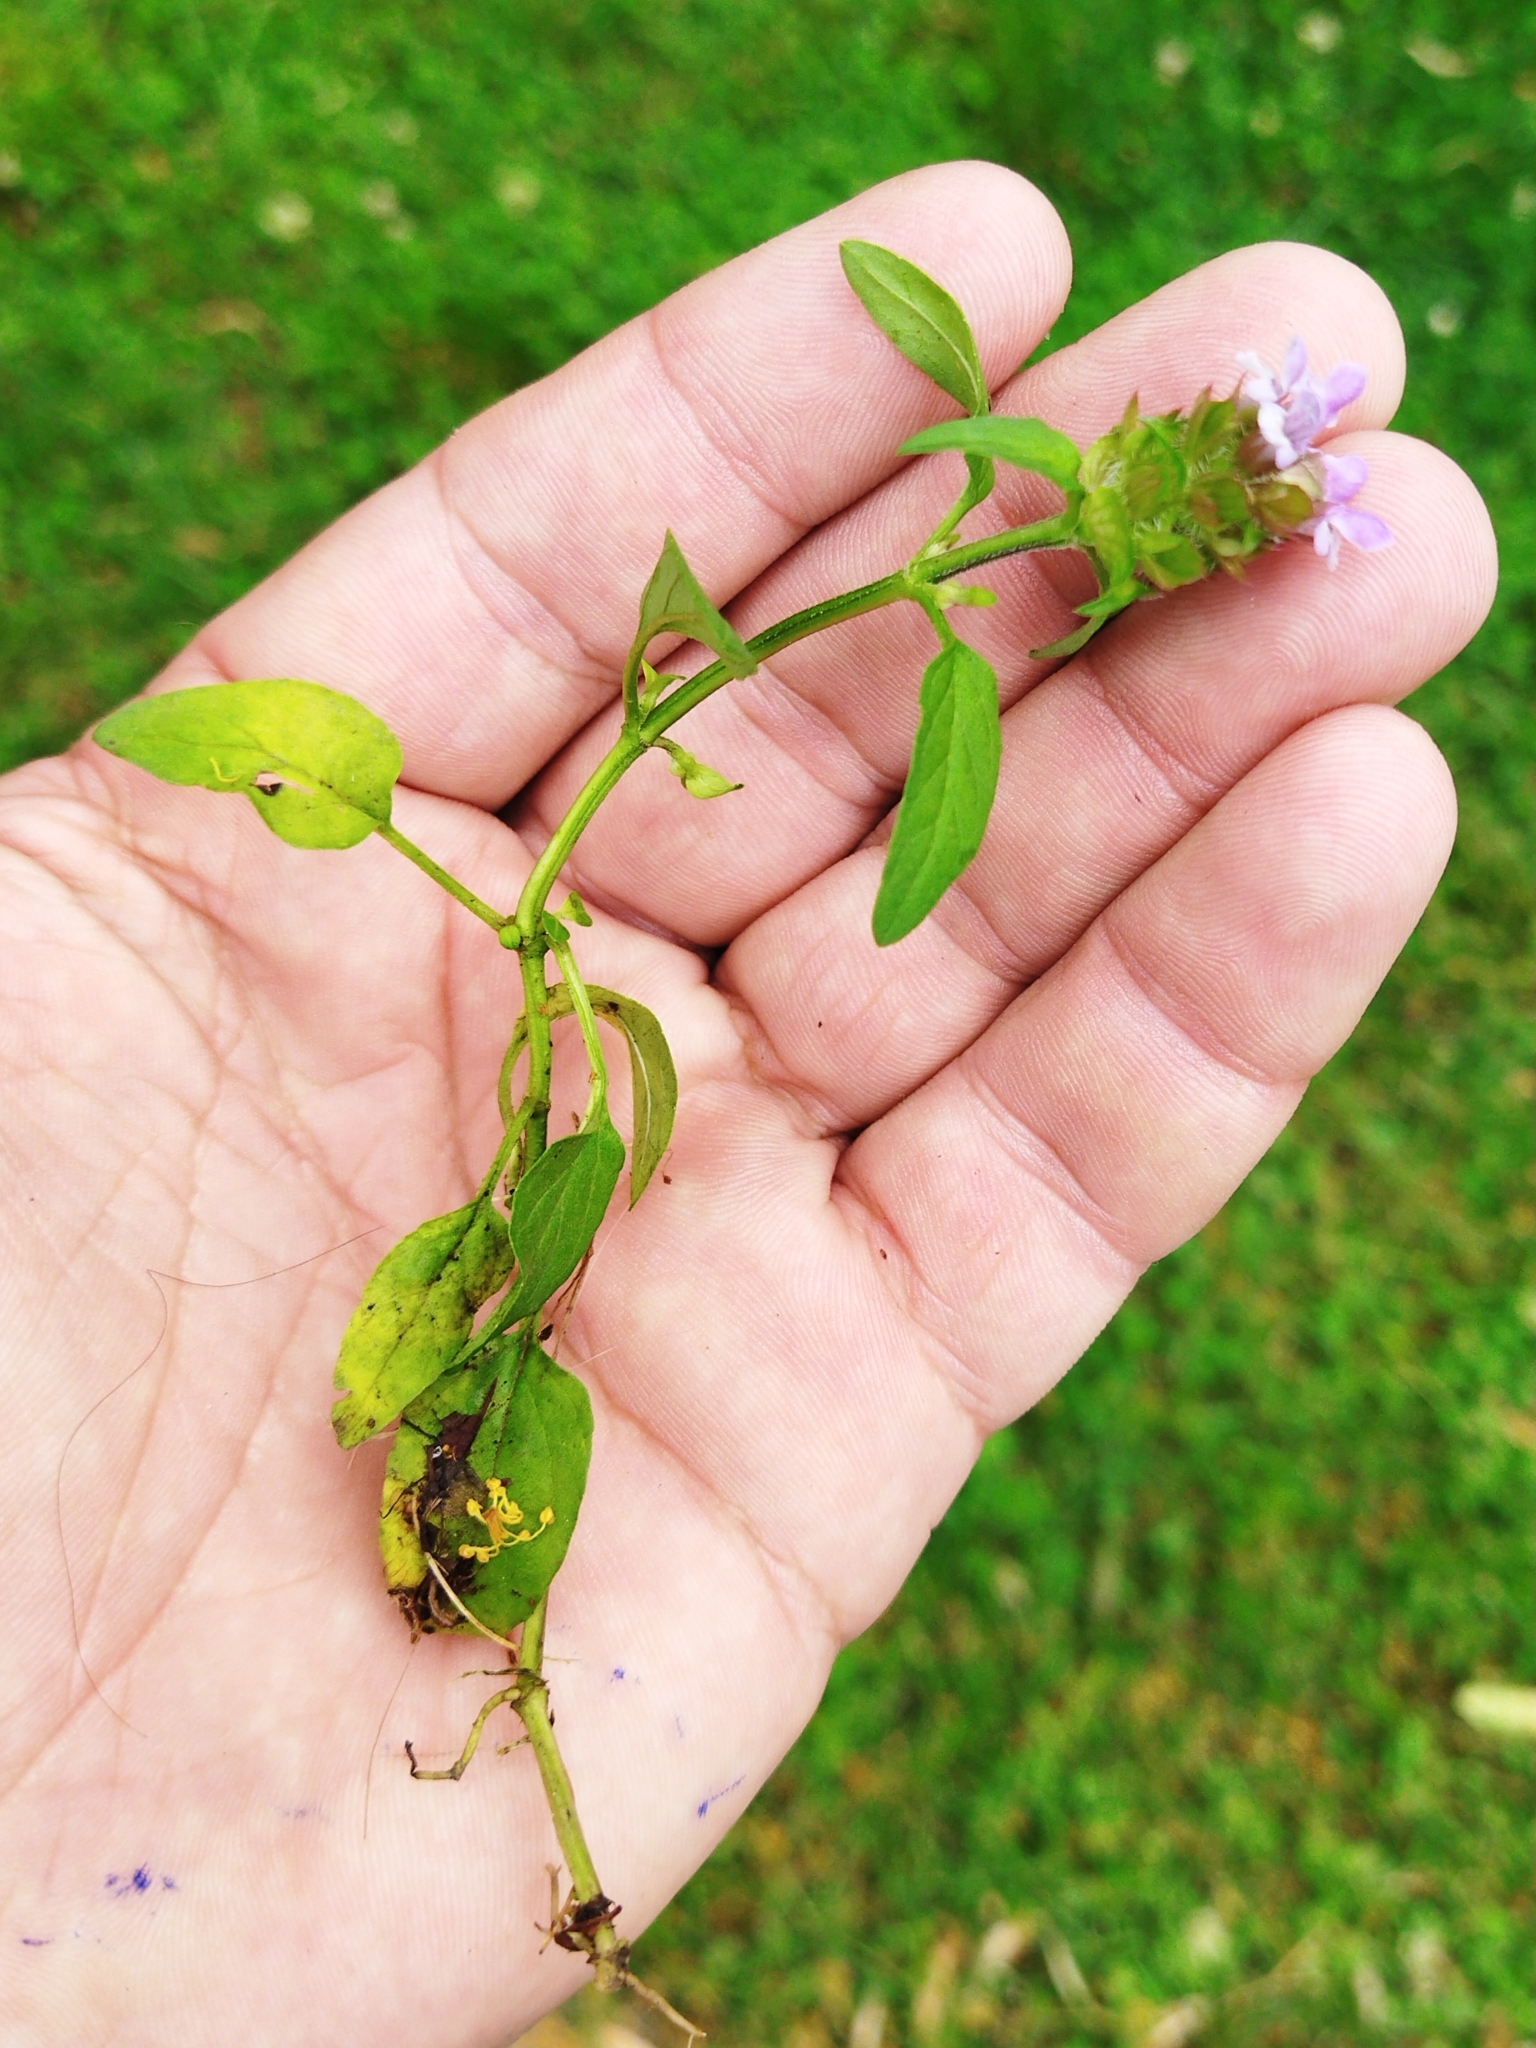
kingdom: Plantae
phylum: Tracheophyta
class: Magnoliopsida
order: Lamiales
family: Lamiaceae
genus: Prunella
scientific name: Prunella vulgaris
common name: Heal-all
